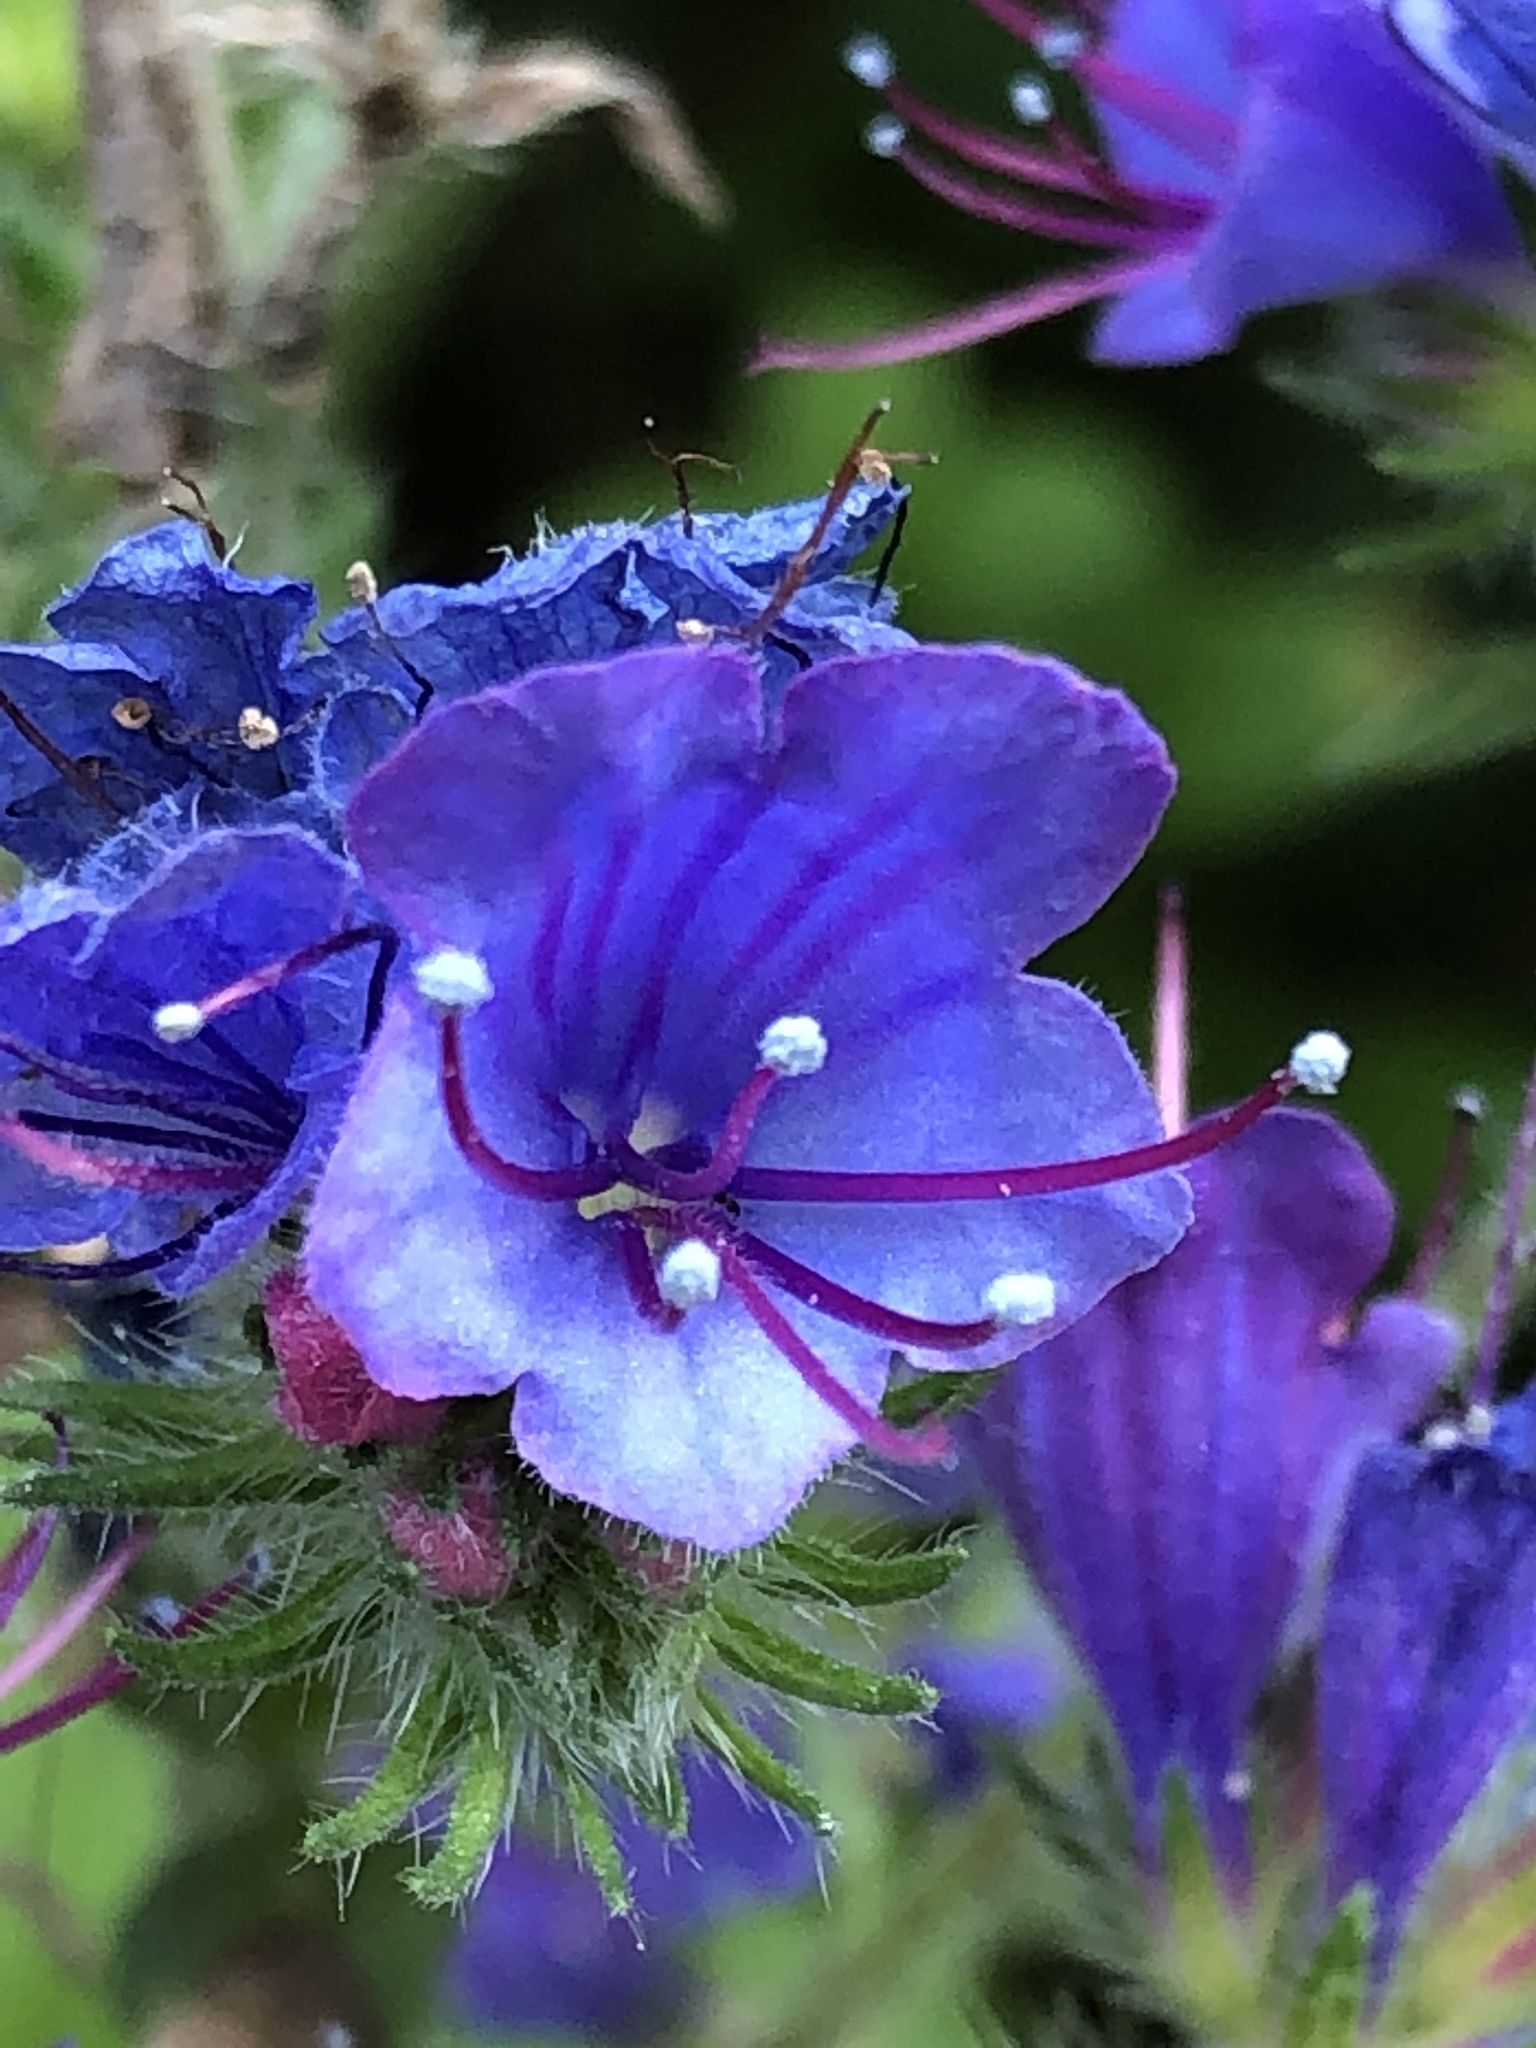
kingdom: Plantae
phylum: Tracheophyta
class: Magnoliopsida
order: Boraginales
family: Boraginaceae
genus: Echium
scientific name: Echium vulgare
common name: Common viper's bugloss
